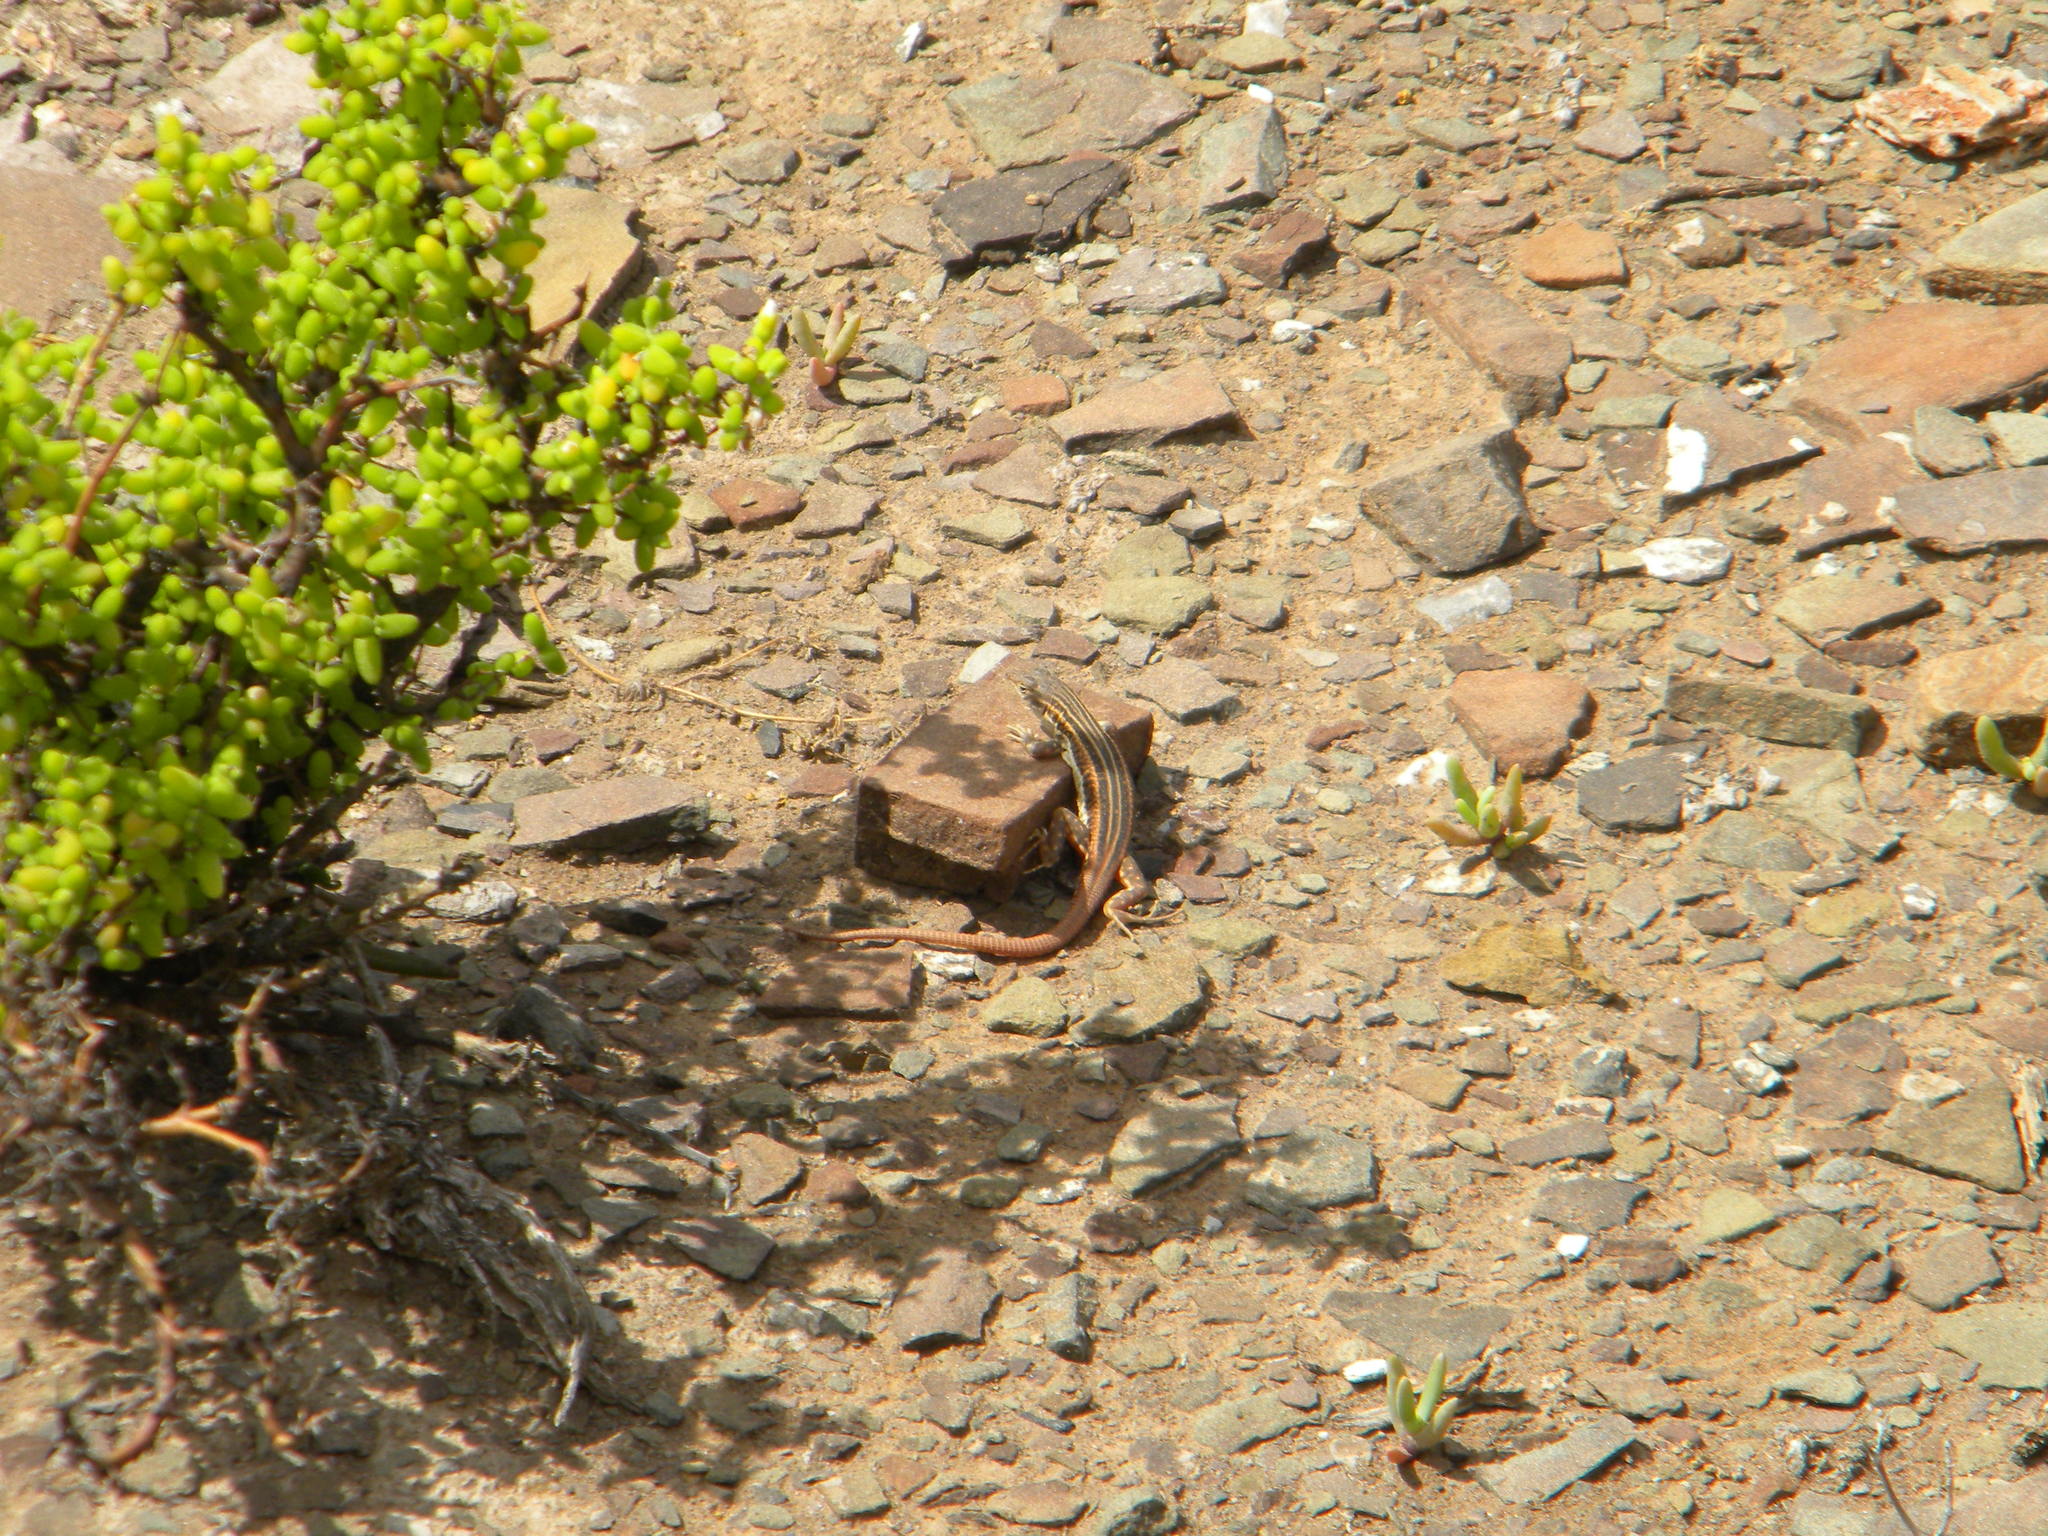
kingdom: Animalia
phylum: Chordata
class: Squamata
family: Lacertidae
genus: Pedioplanis
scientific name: Pedioplanis burchelli
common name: Burchell's sand lizard
